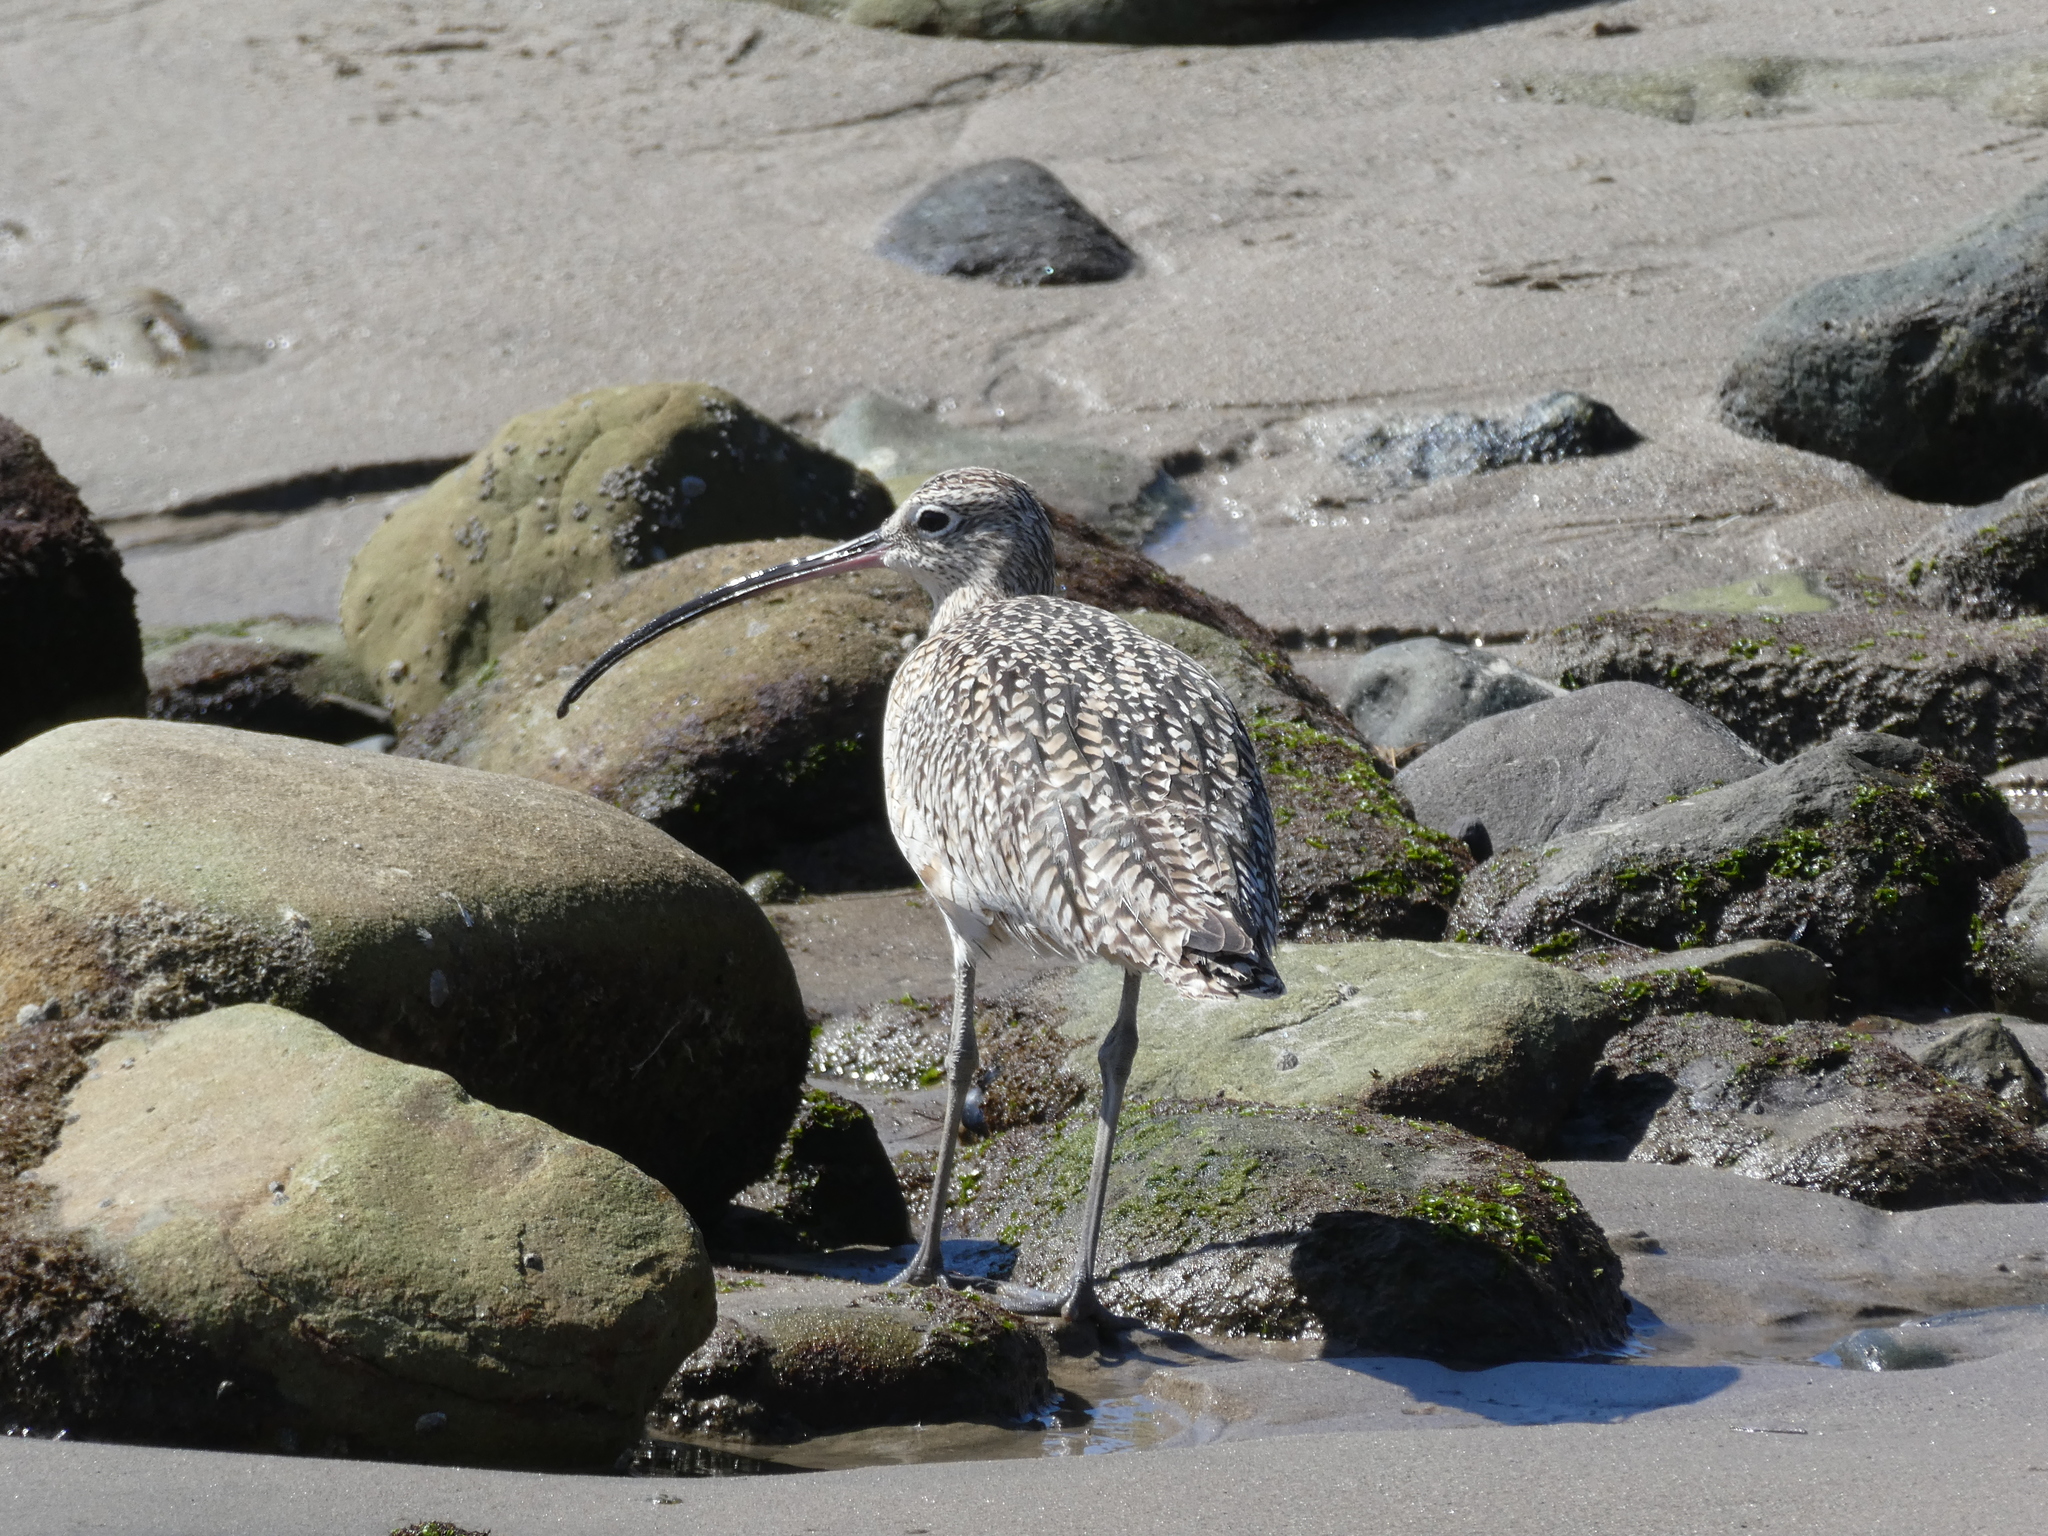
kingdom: Animalia
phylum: Chordata
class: Aves
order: Charadriiformes
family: Scolopacidae
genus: Numenius
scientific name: Numenius americanus
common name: Long-billed curlew
